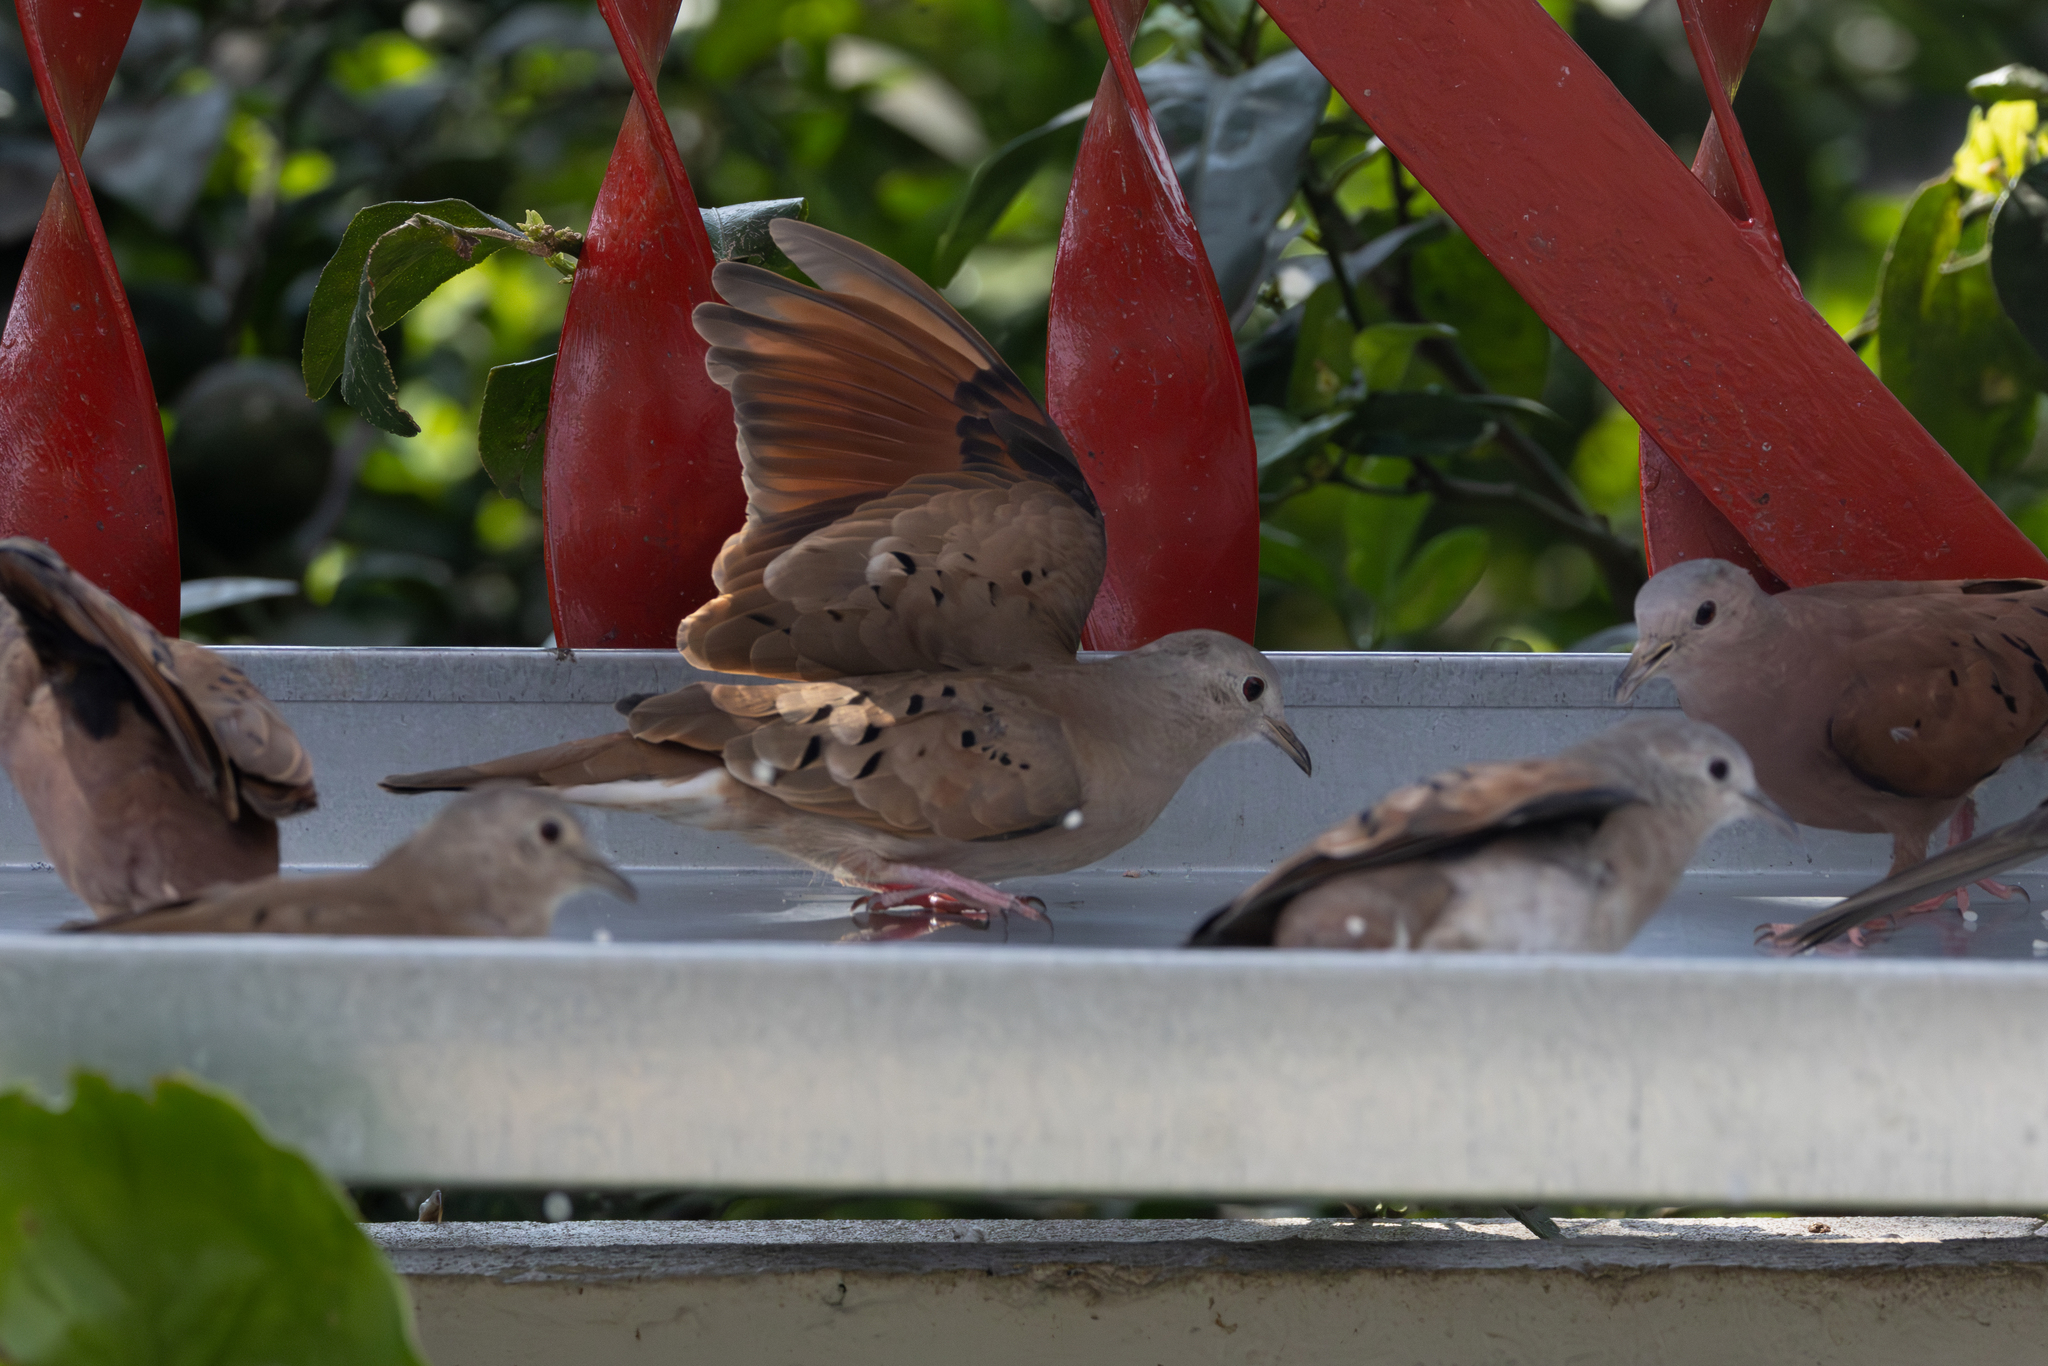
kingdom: Animalia
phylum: Chordata
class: Aves
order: Columbiformes
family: Columbidae
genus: Columbina
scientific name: Columbina talpacoti
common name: Ruddy ground dove
